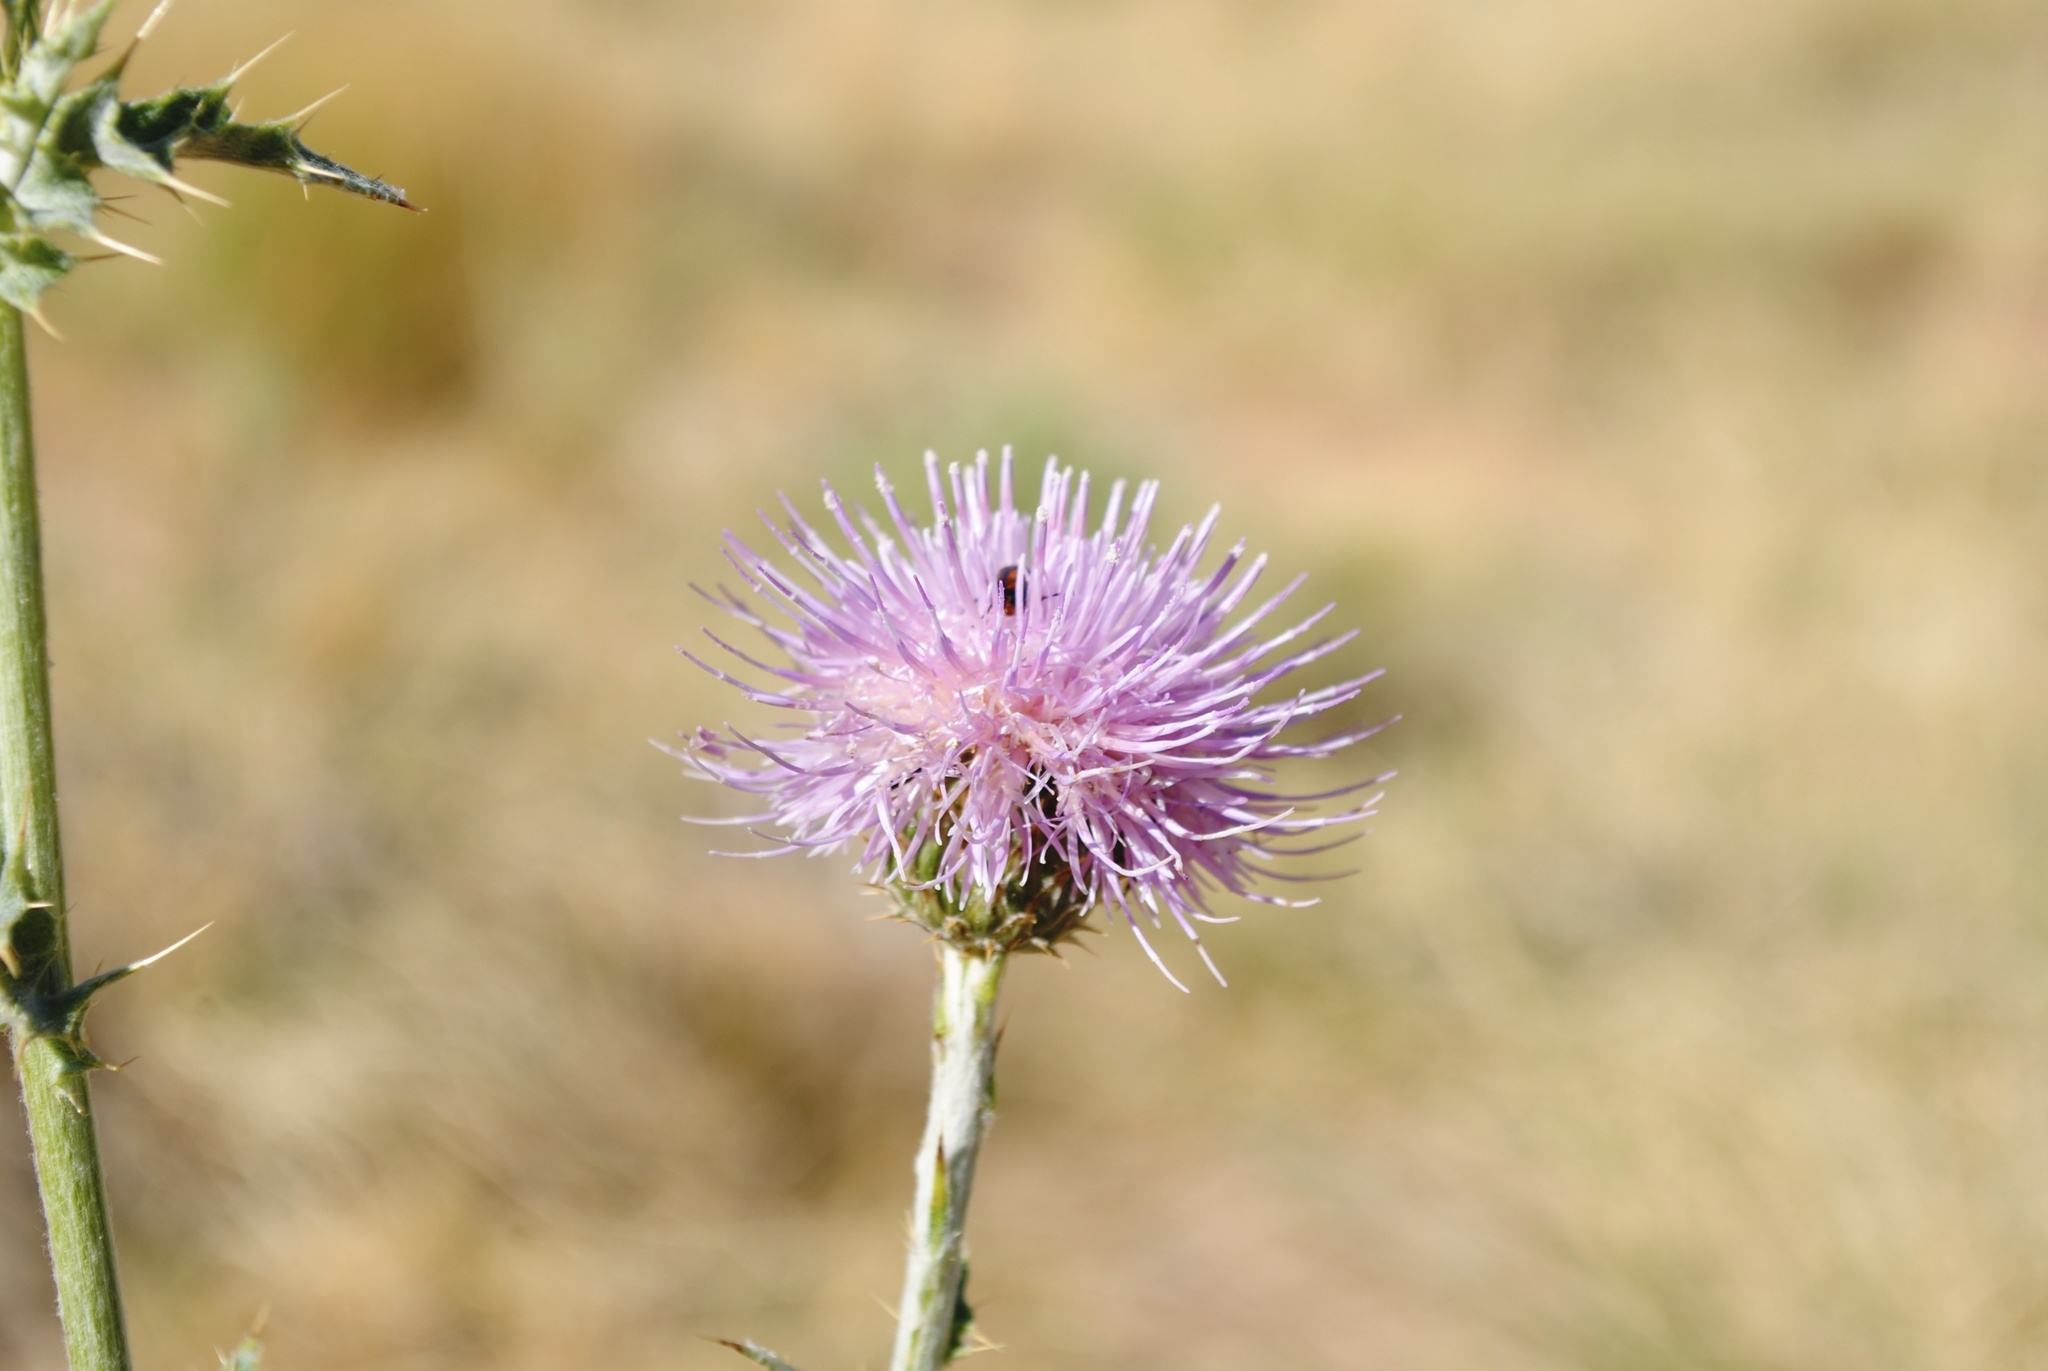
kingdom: Plantae
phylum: Tracheophyta
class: Magnoliopsida
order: Asterales
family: Asteraceae
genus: Cirsium
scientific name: Cirsium mohavense
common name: Mojave thistle
